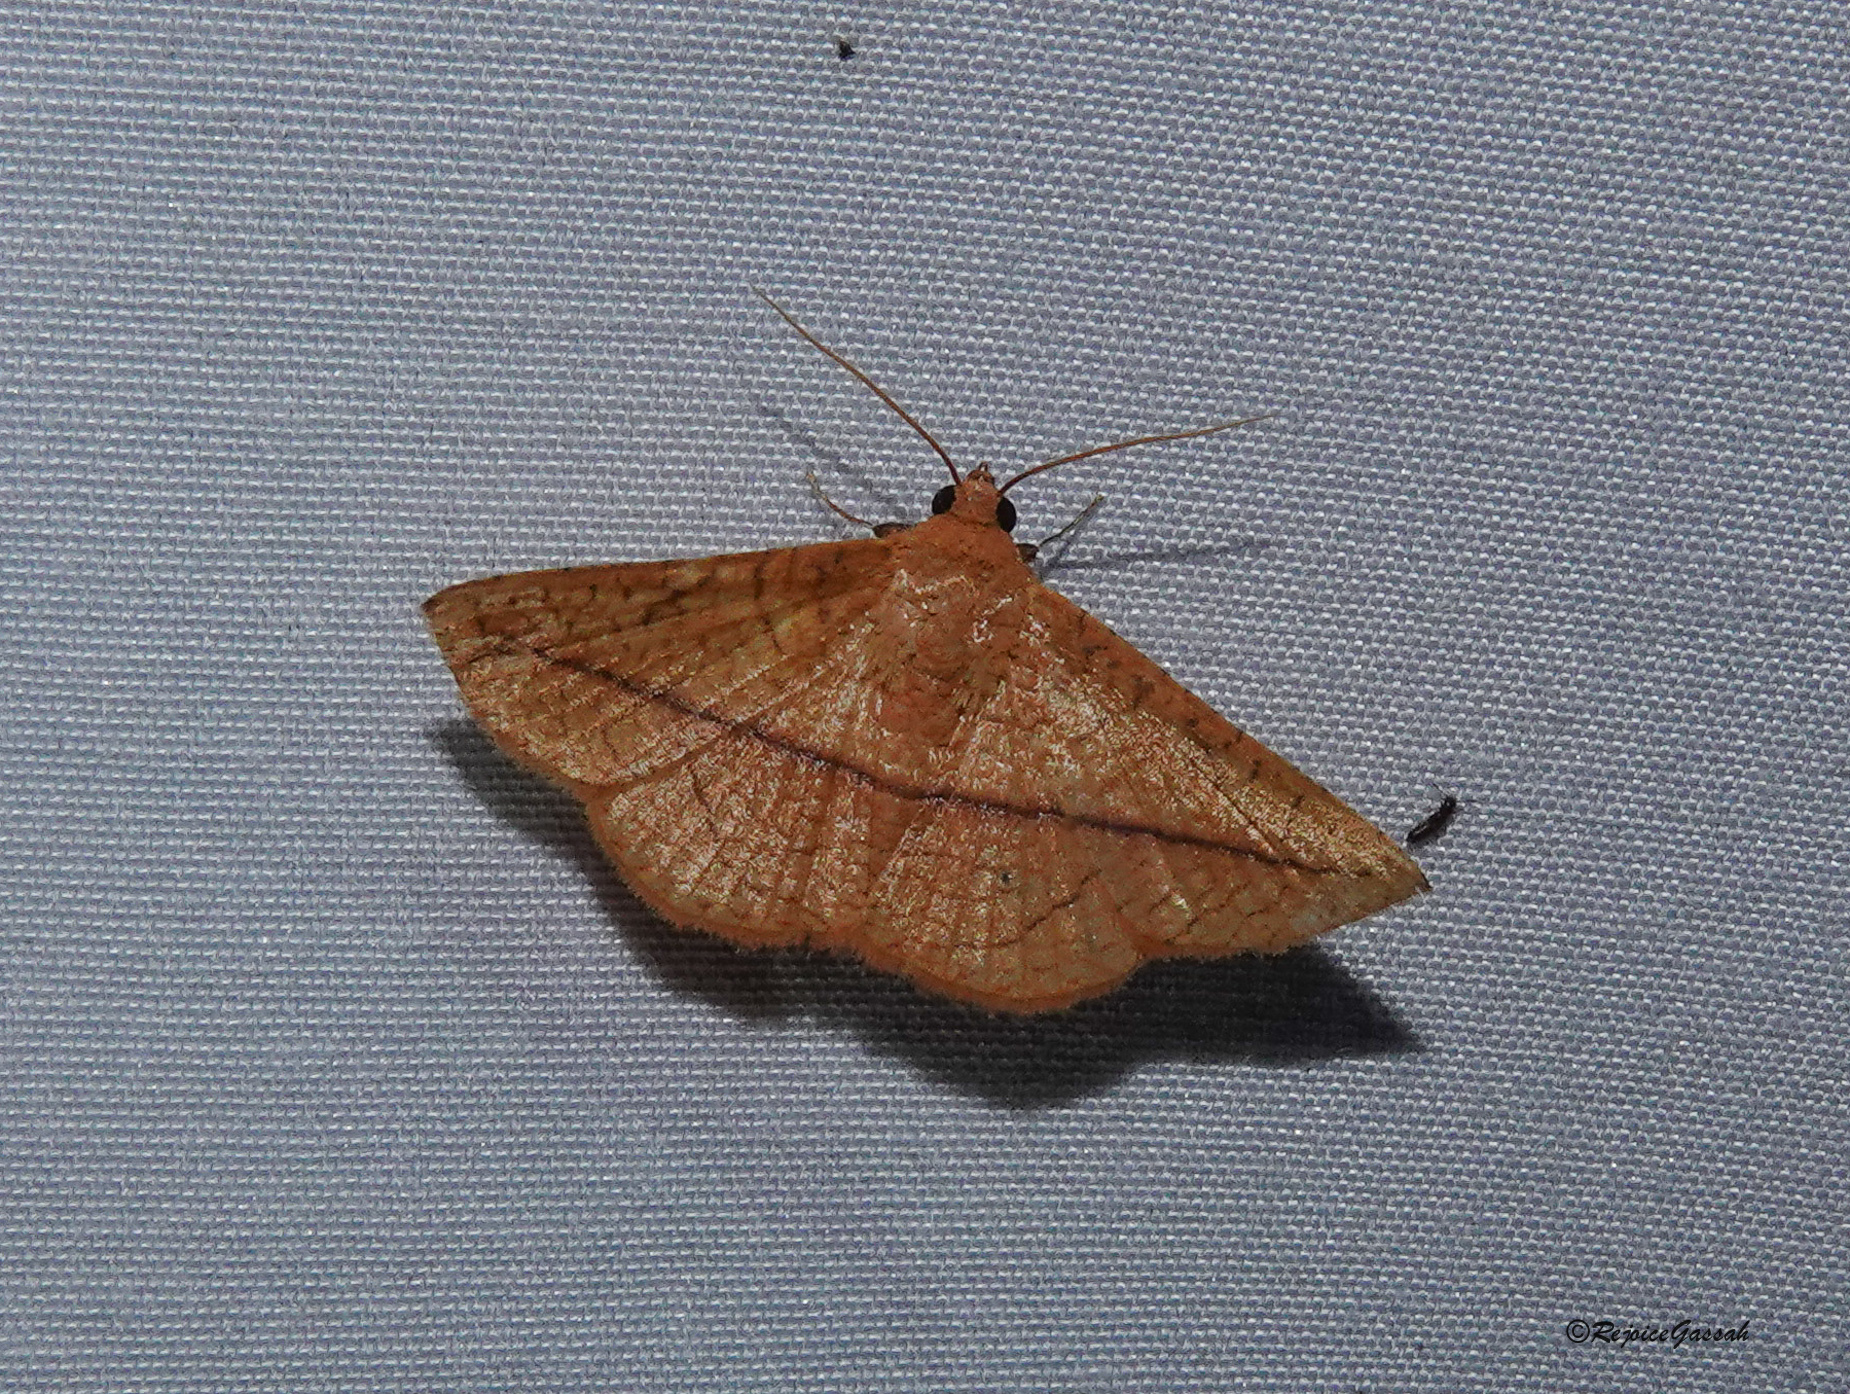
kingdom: Animalia
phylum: Arthropoda
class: Insecta
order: Lepidoptera
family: Thyrididae
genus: Striglina
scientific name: Striglina scitaria
